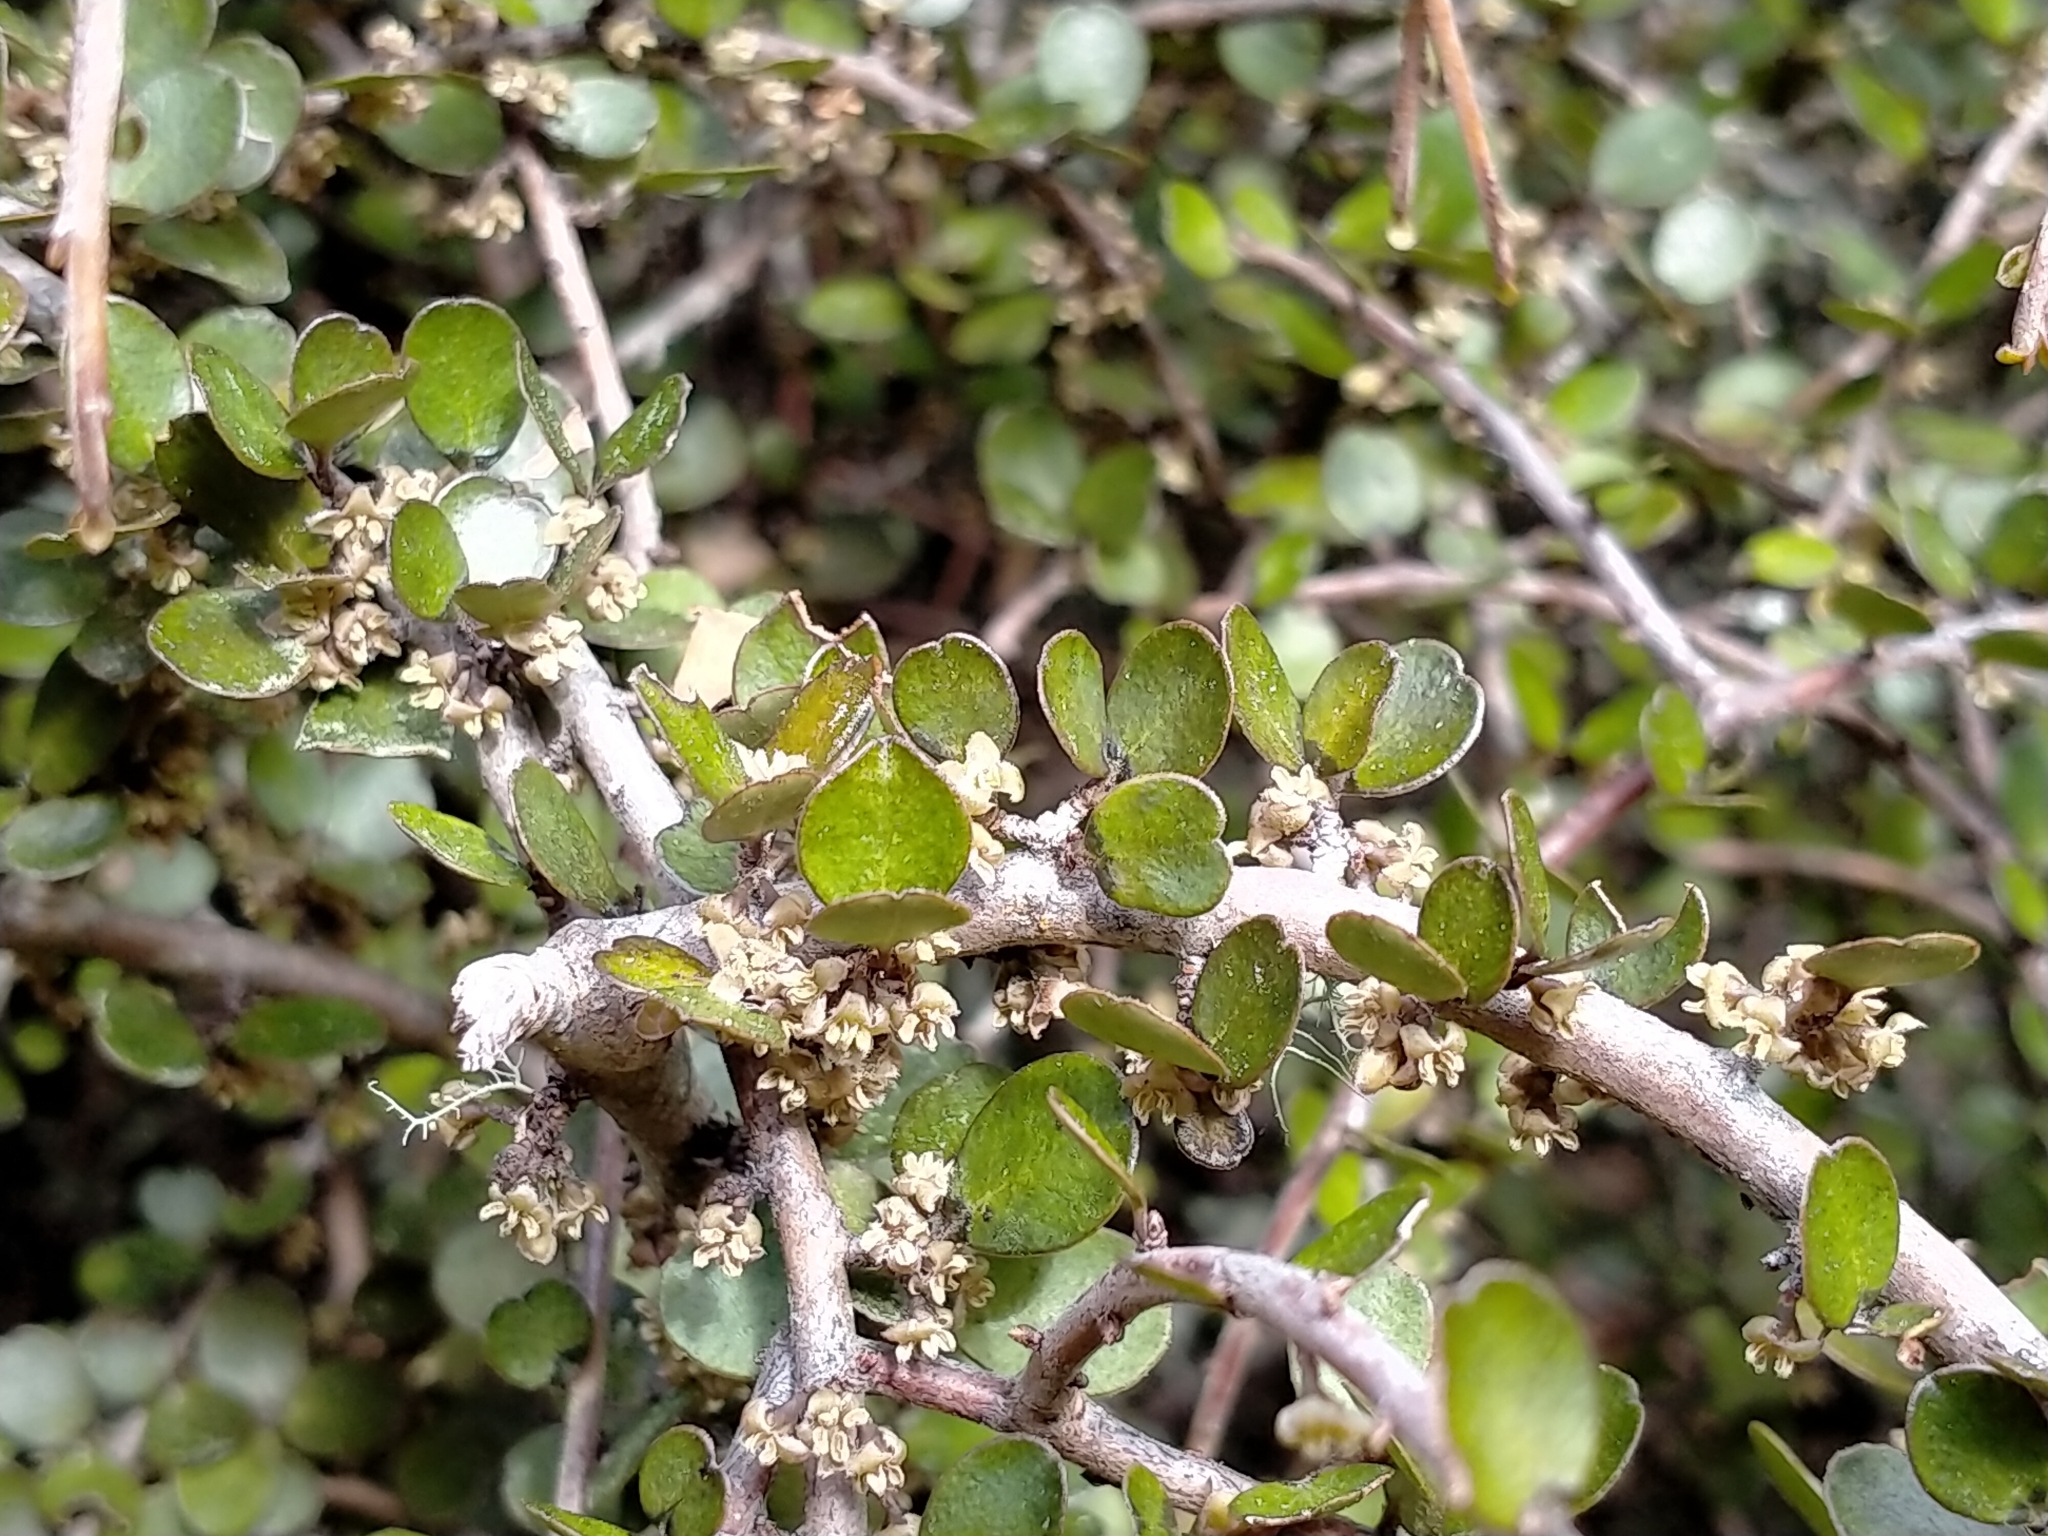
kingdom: Plantae
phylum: Tracheophyta
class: Magnoliopsida
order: Ericales
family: Primulaceae
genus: Myrsine
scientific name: Myrsine divaricata
